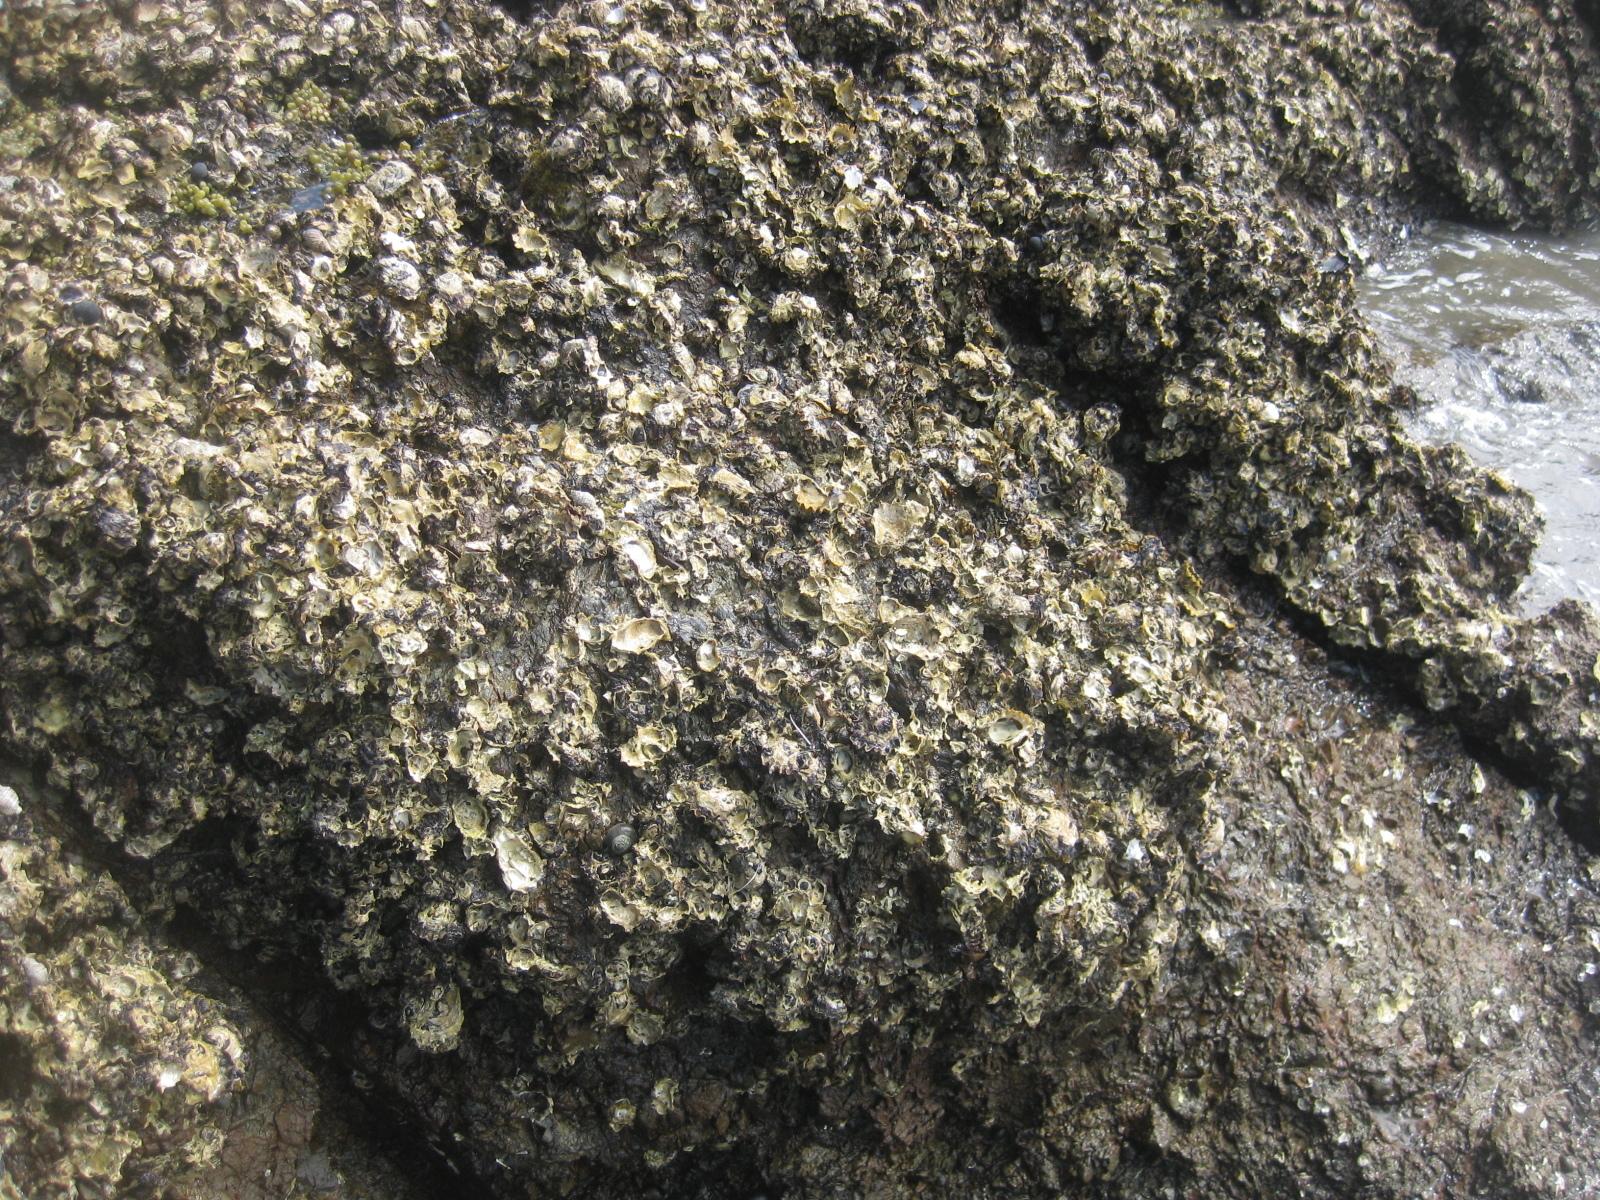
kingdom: Animalia
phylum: Mollusca
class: Bivalvia
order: Ostreida
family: Ostreidae
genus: Saccostrea
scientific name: Saccostrea glomerata
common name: Sydney cupped oyster
